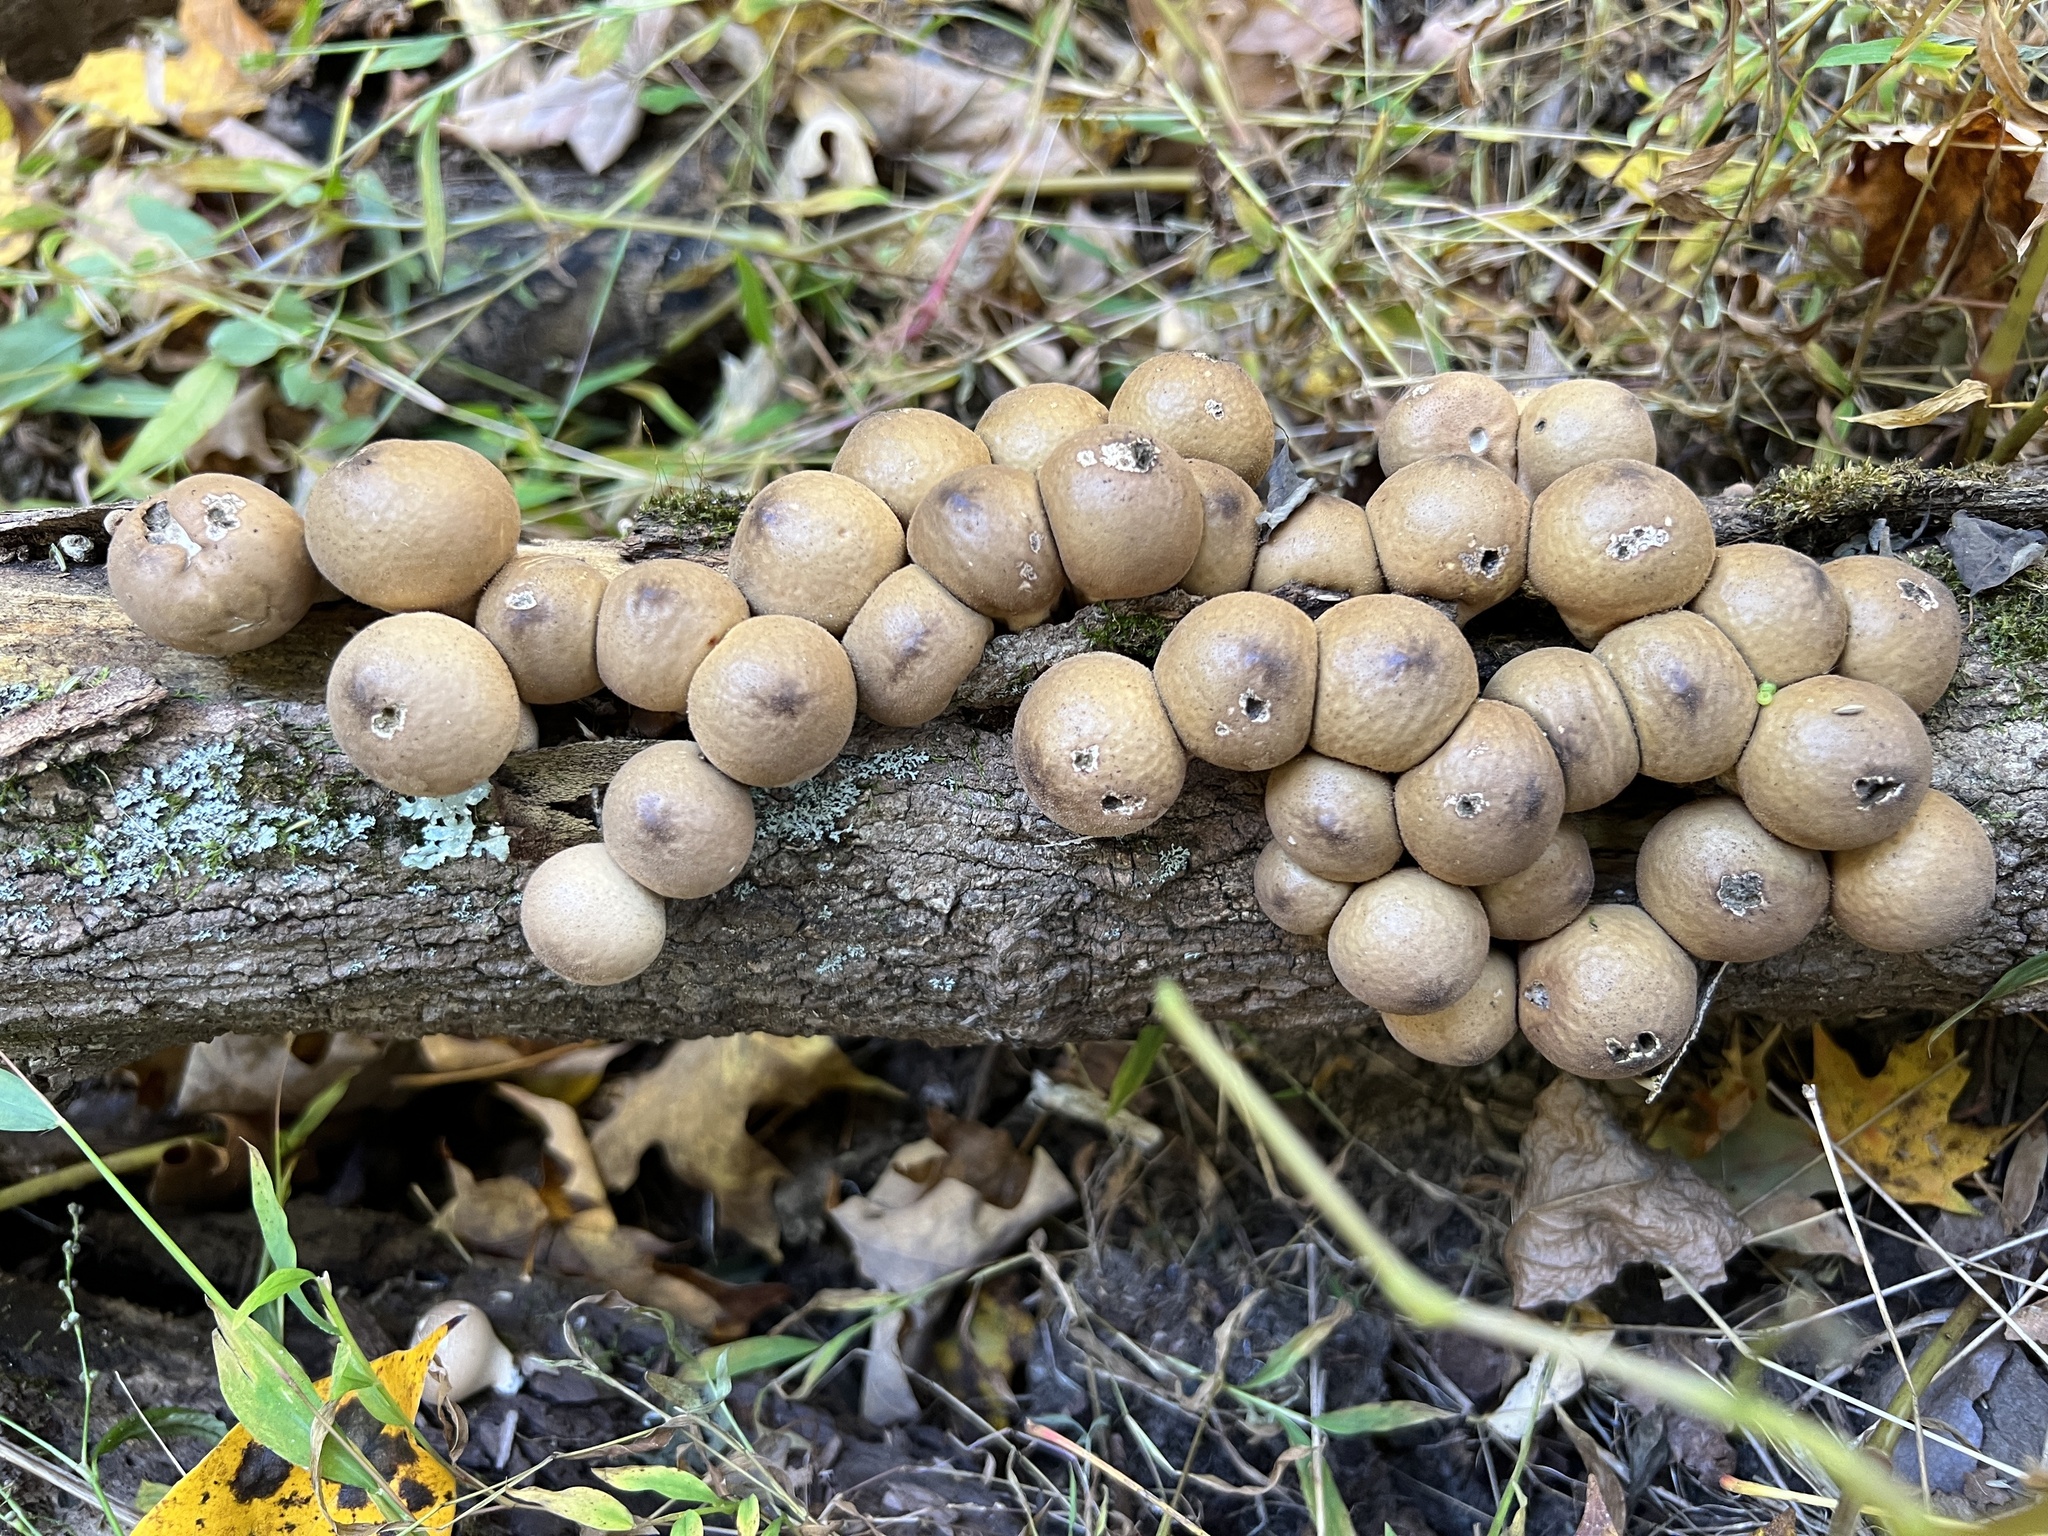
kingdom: Fungi
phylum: Basidiomycota
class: Agaricomycetes
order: Agaricales
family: Lycoperdaceae
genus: Apioperdon
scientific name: Apioperdon pyriforme
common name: Pear-shaped puffball
